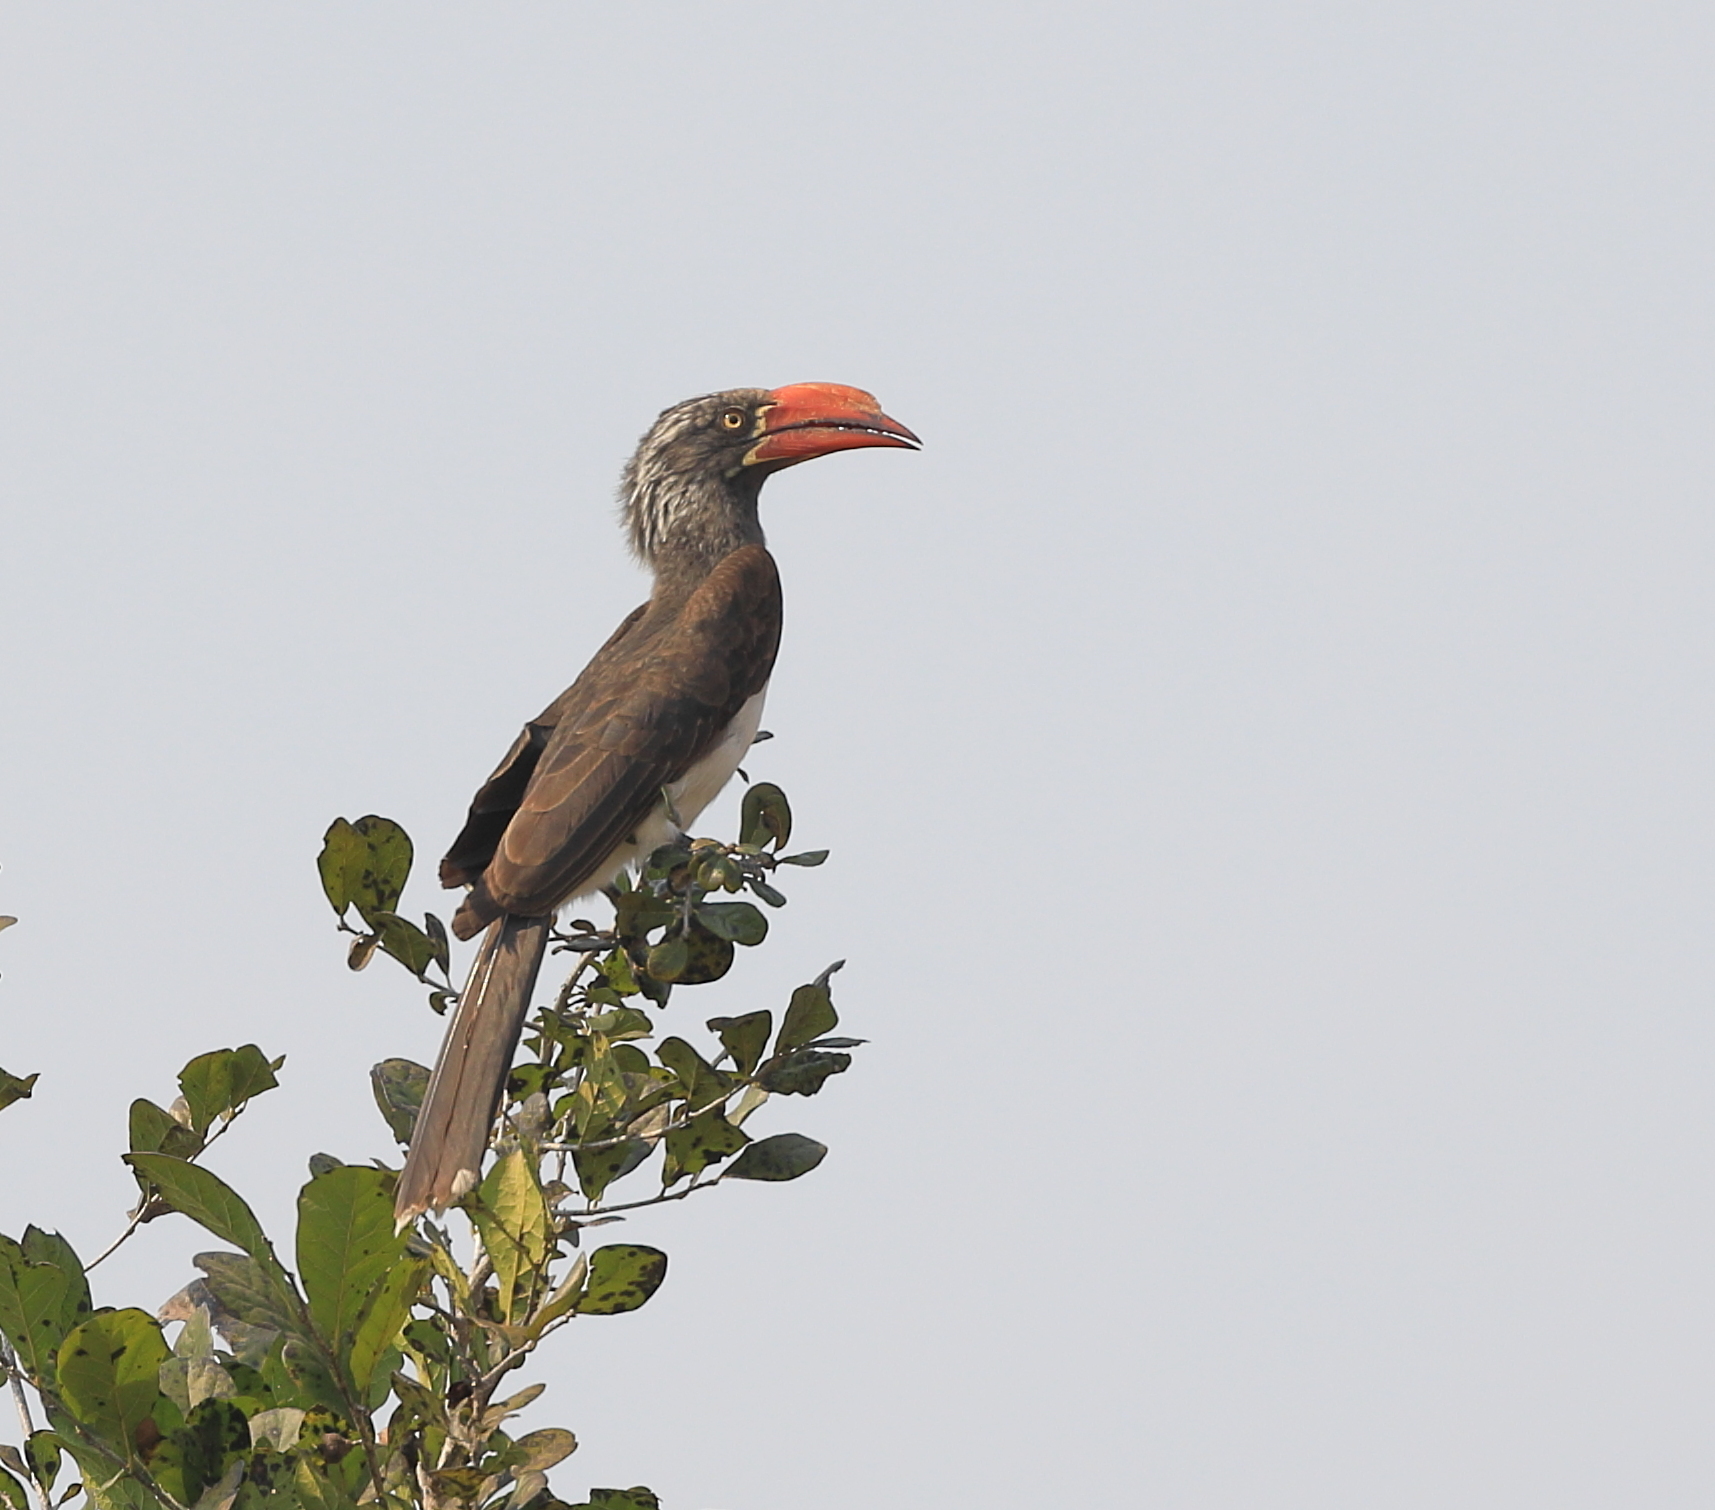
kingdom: Animalia
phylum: Chordata
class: Aves
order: Bucerotiformes
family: Bucerotidae
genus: Lophoceros
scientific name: Lophoceros alboterminatus
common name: Crowned hornbill
